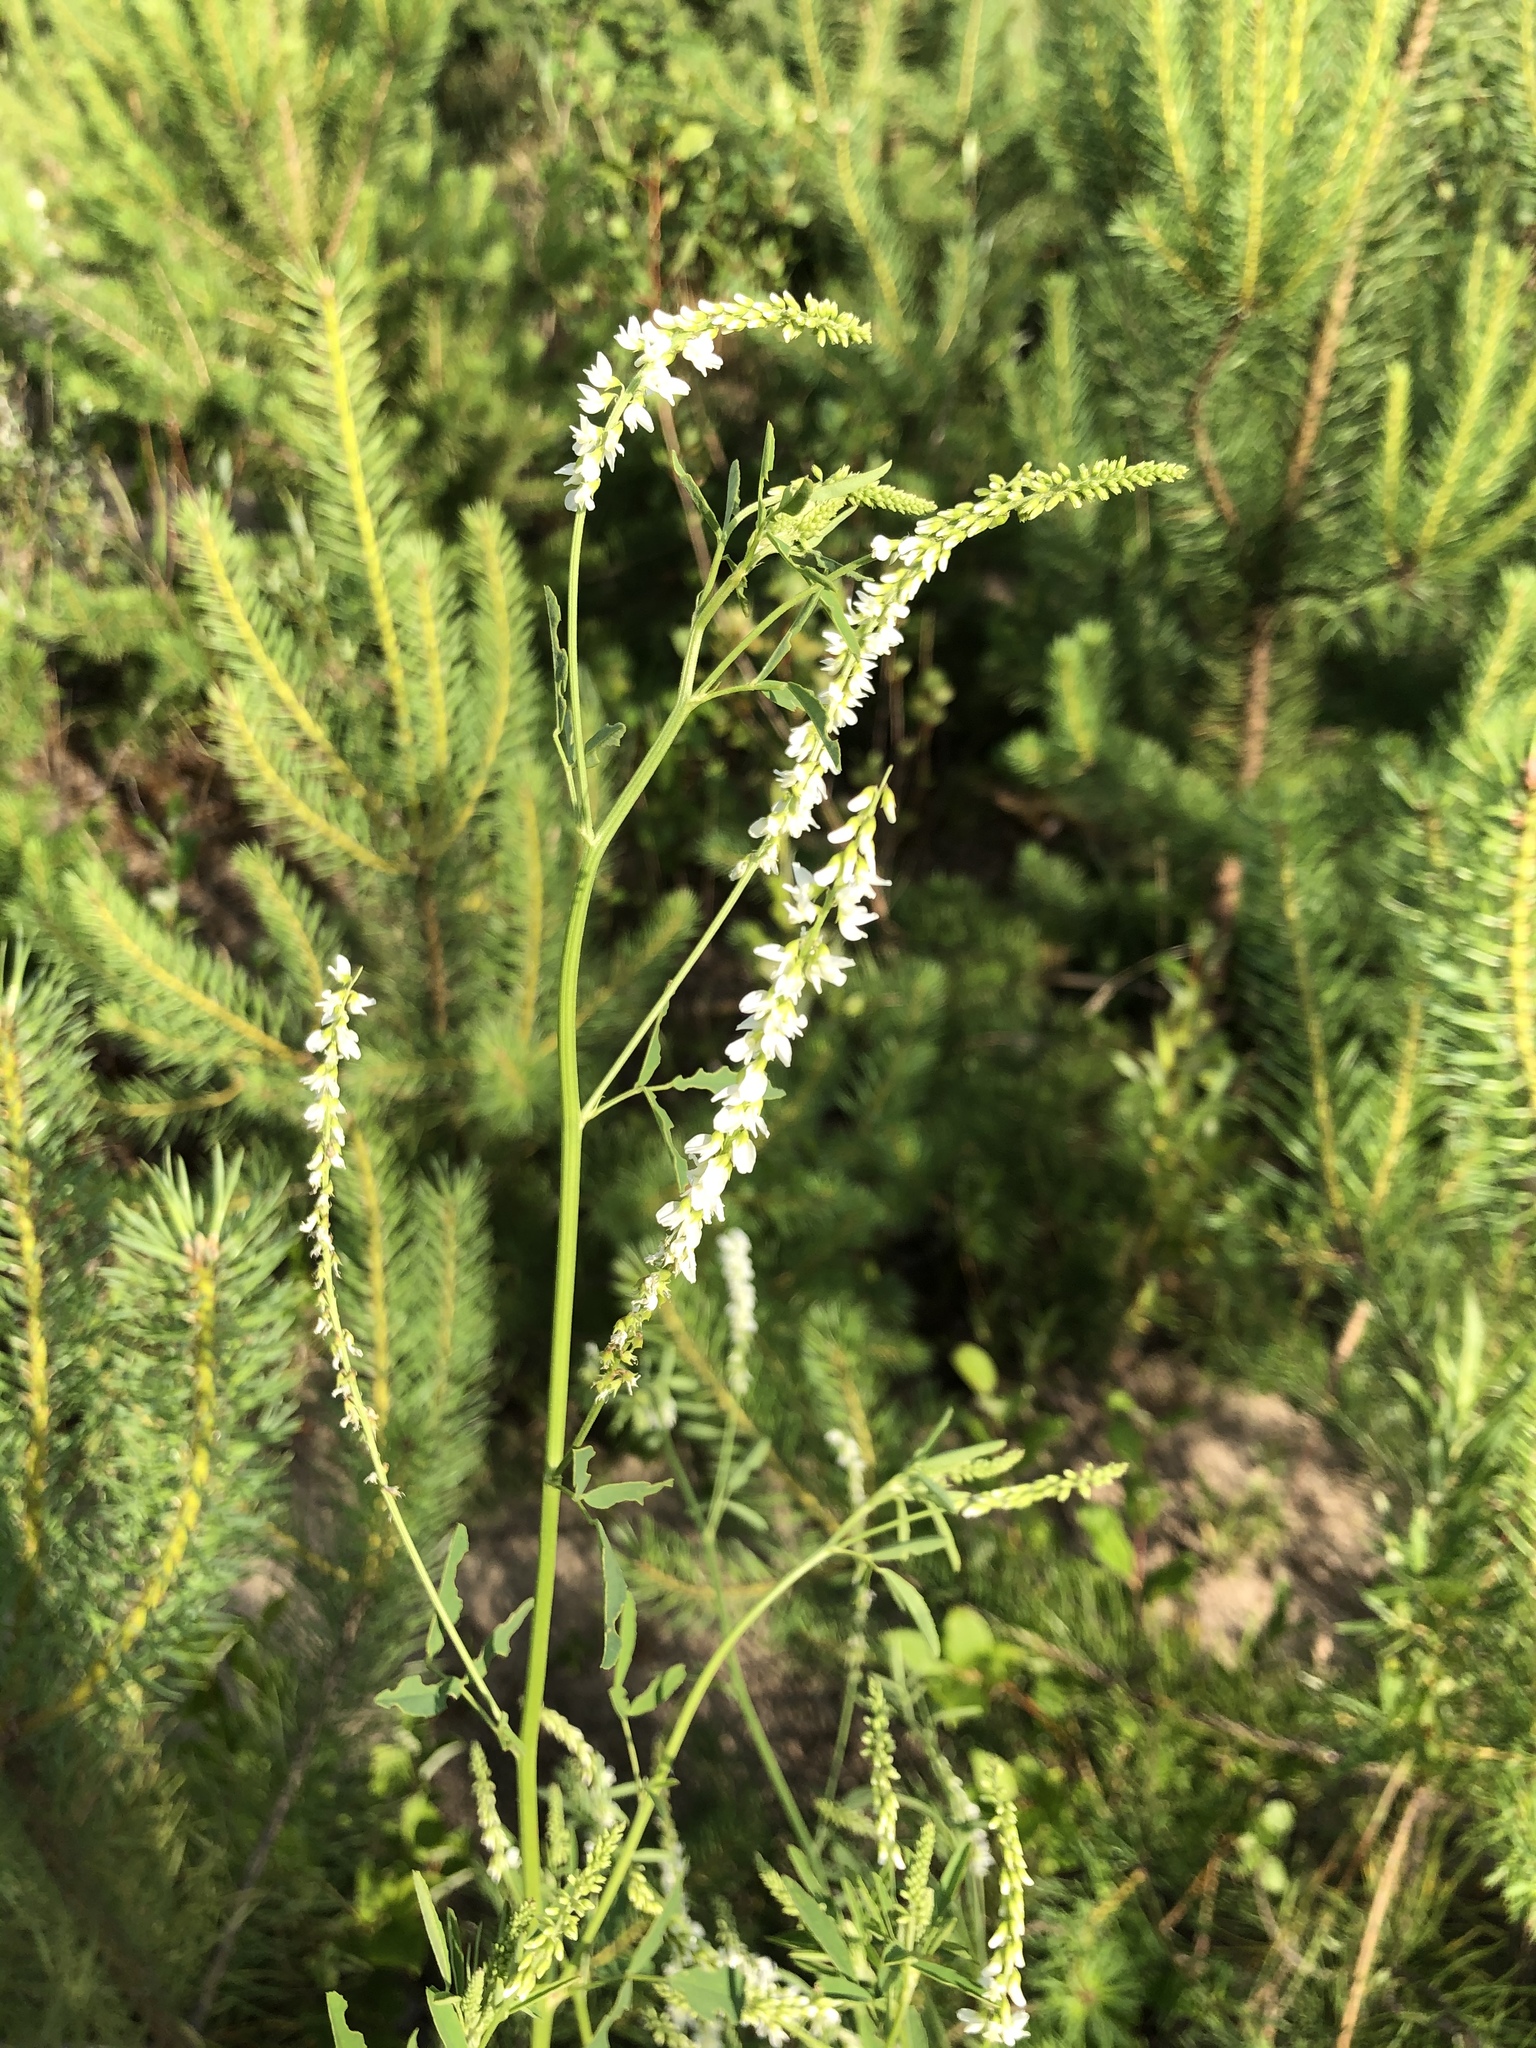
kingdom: Plantae
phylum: Tracheophyta
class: Magnoliopsida
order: Fabales
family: Fabaceae
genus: Melilotus
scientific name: Melilotus albus
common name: White melilot
